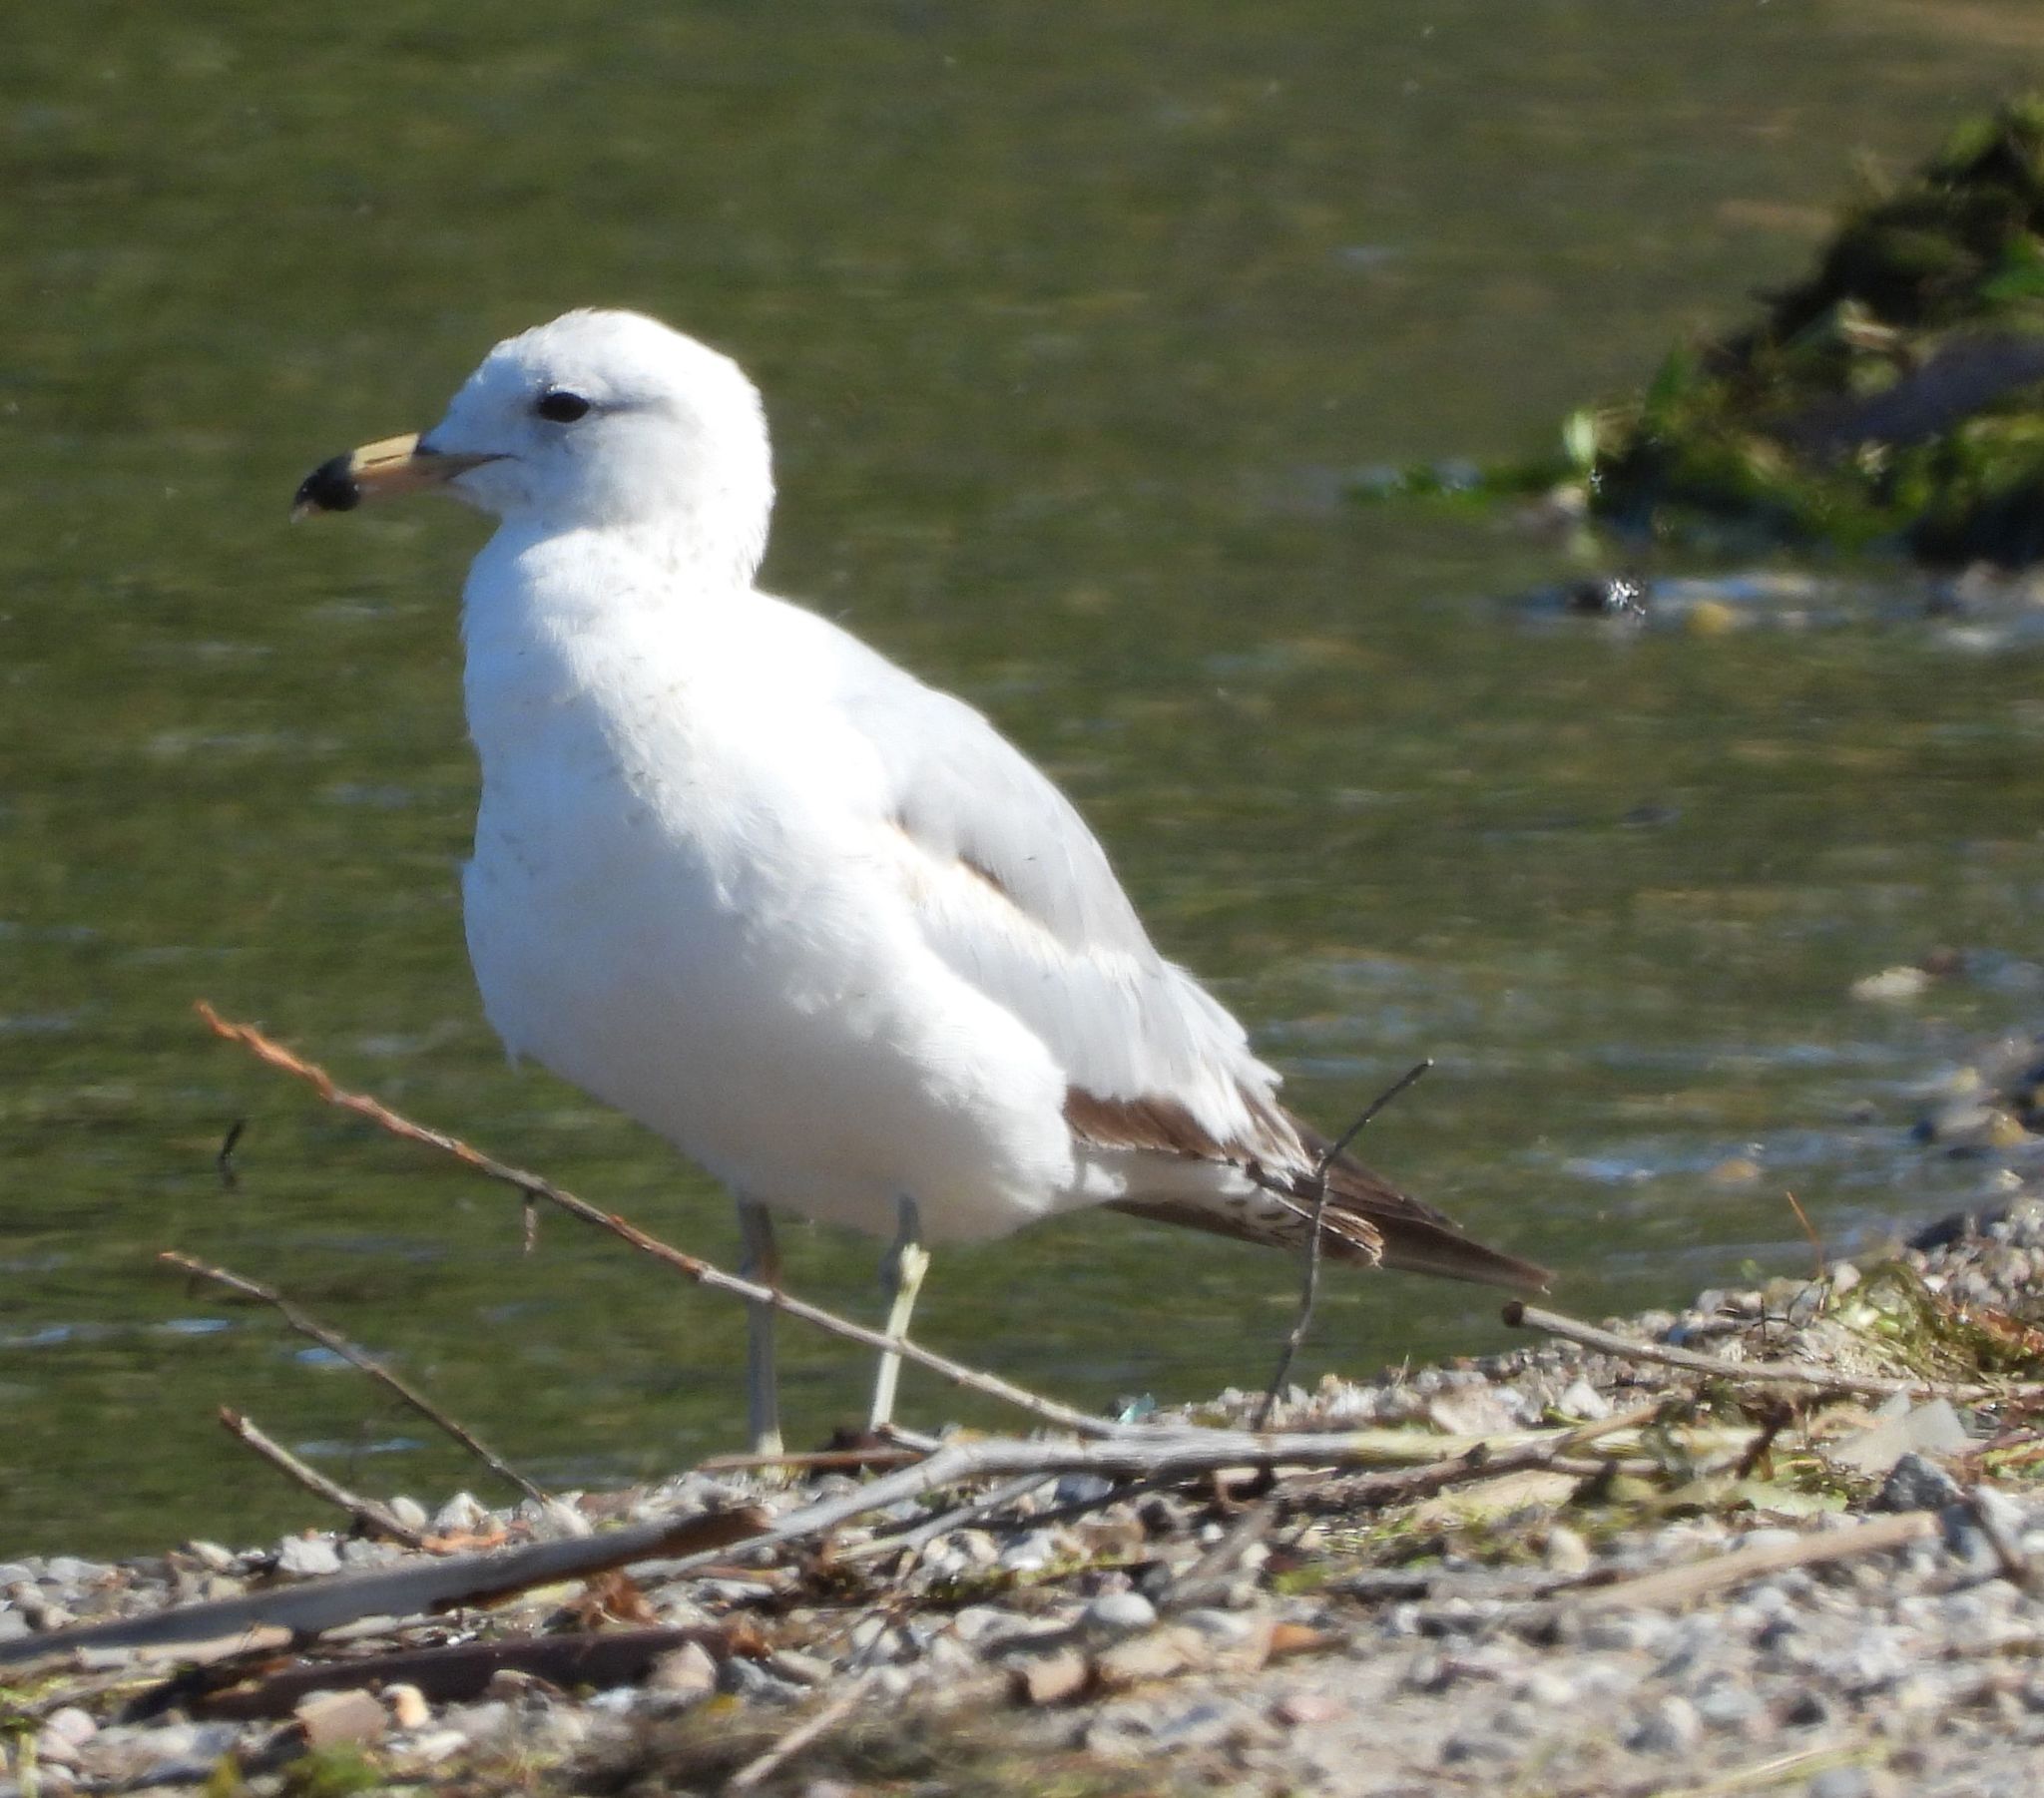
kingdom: Animalia
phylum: Chordata
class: Aves
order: Charadriiformes
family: Laridae
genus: Larus
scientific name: Larus delawarensis
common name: Ring-billed gull
